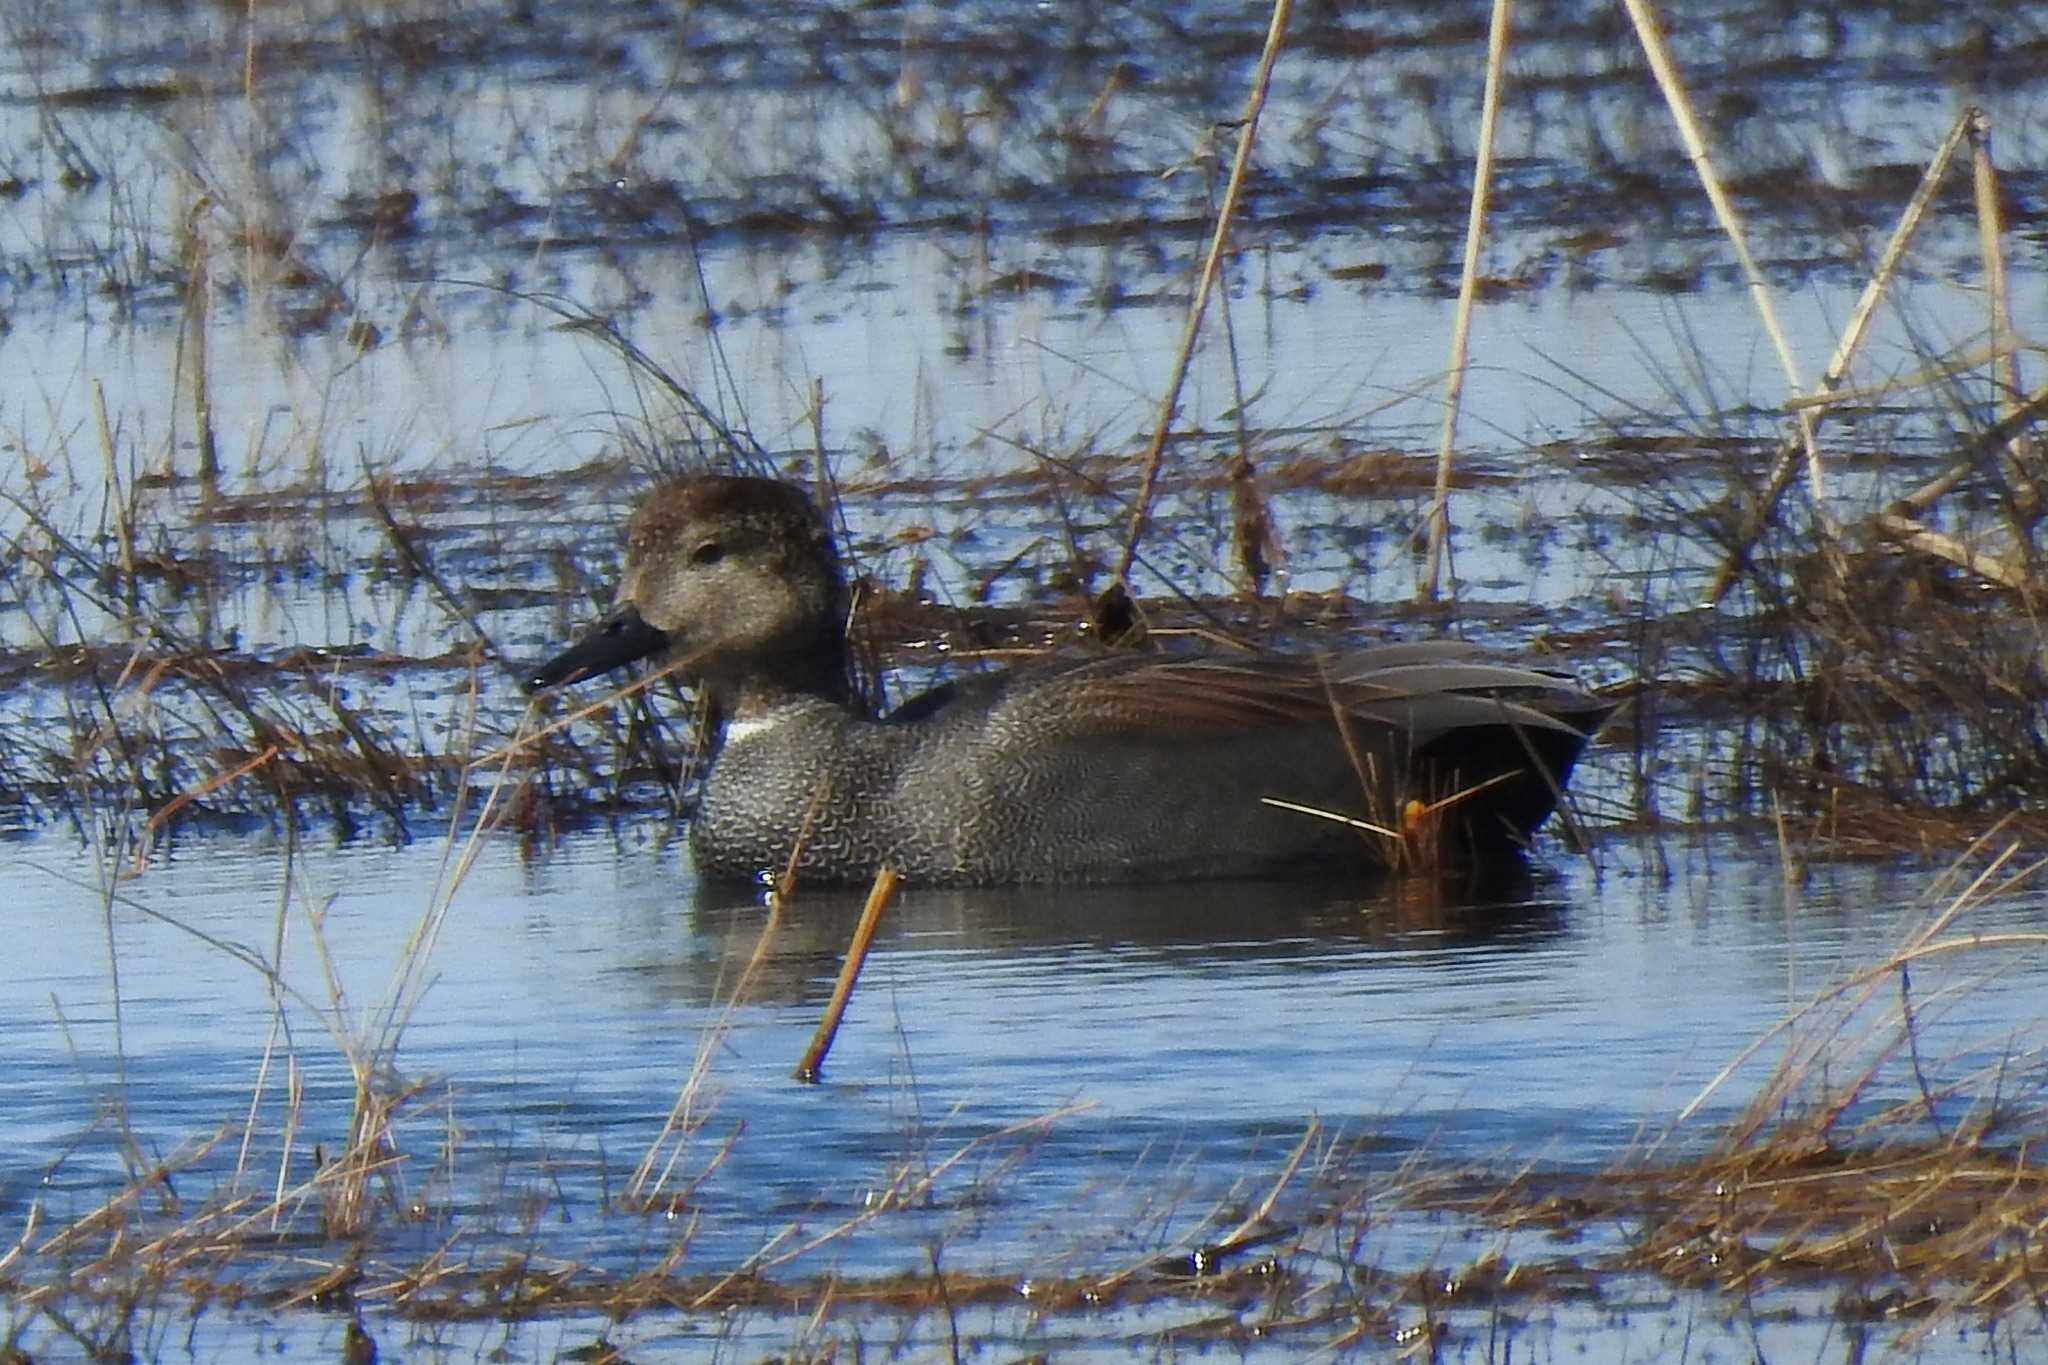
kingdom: Animalia
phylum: Chordata
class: Aves
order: Anseriformes
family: Anatidae
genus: Mareca
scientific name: Mareca strepera
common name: Gadwall
